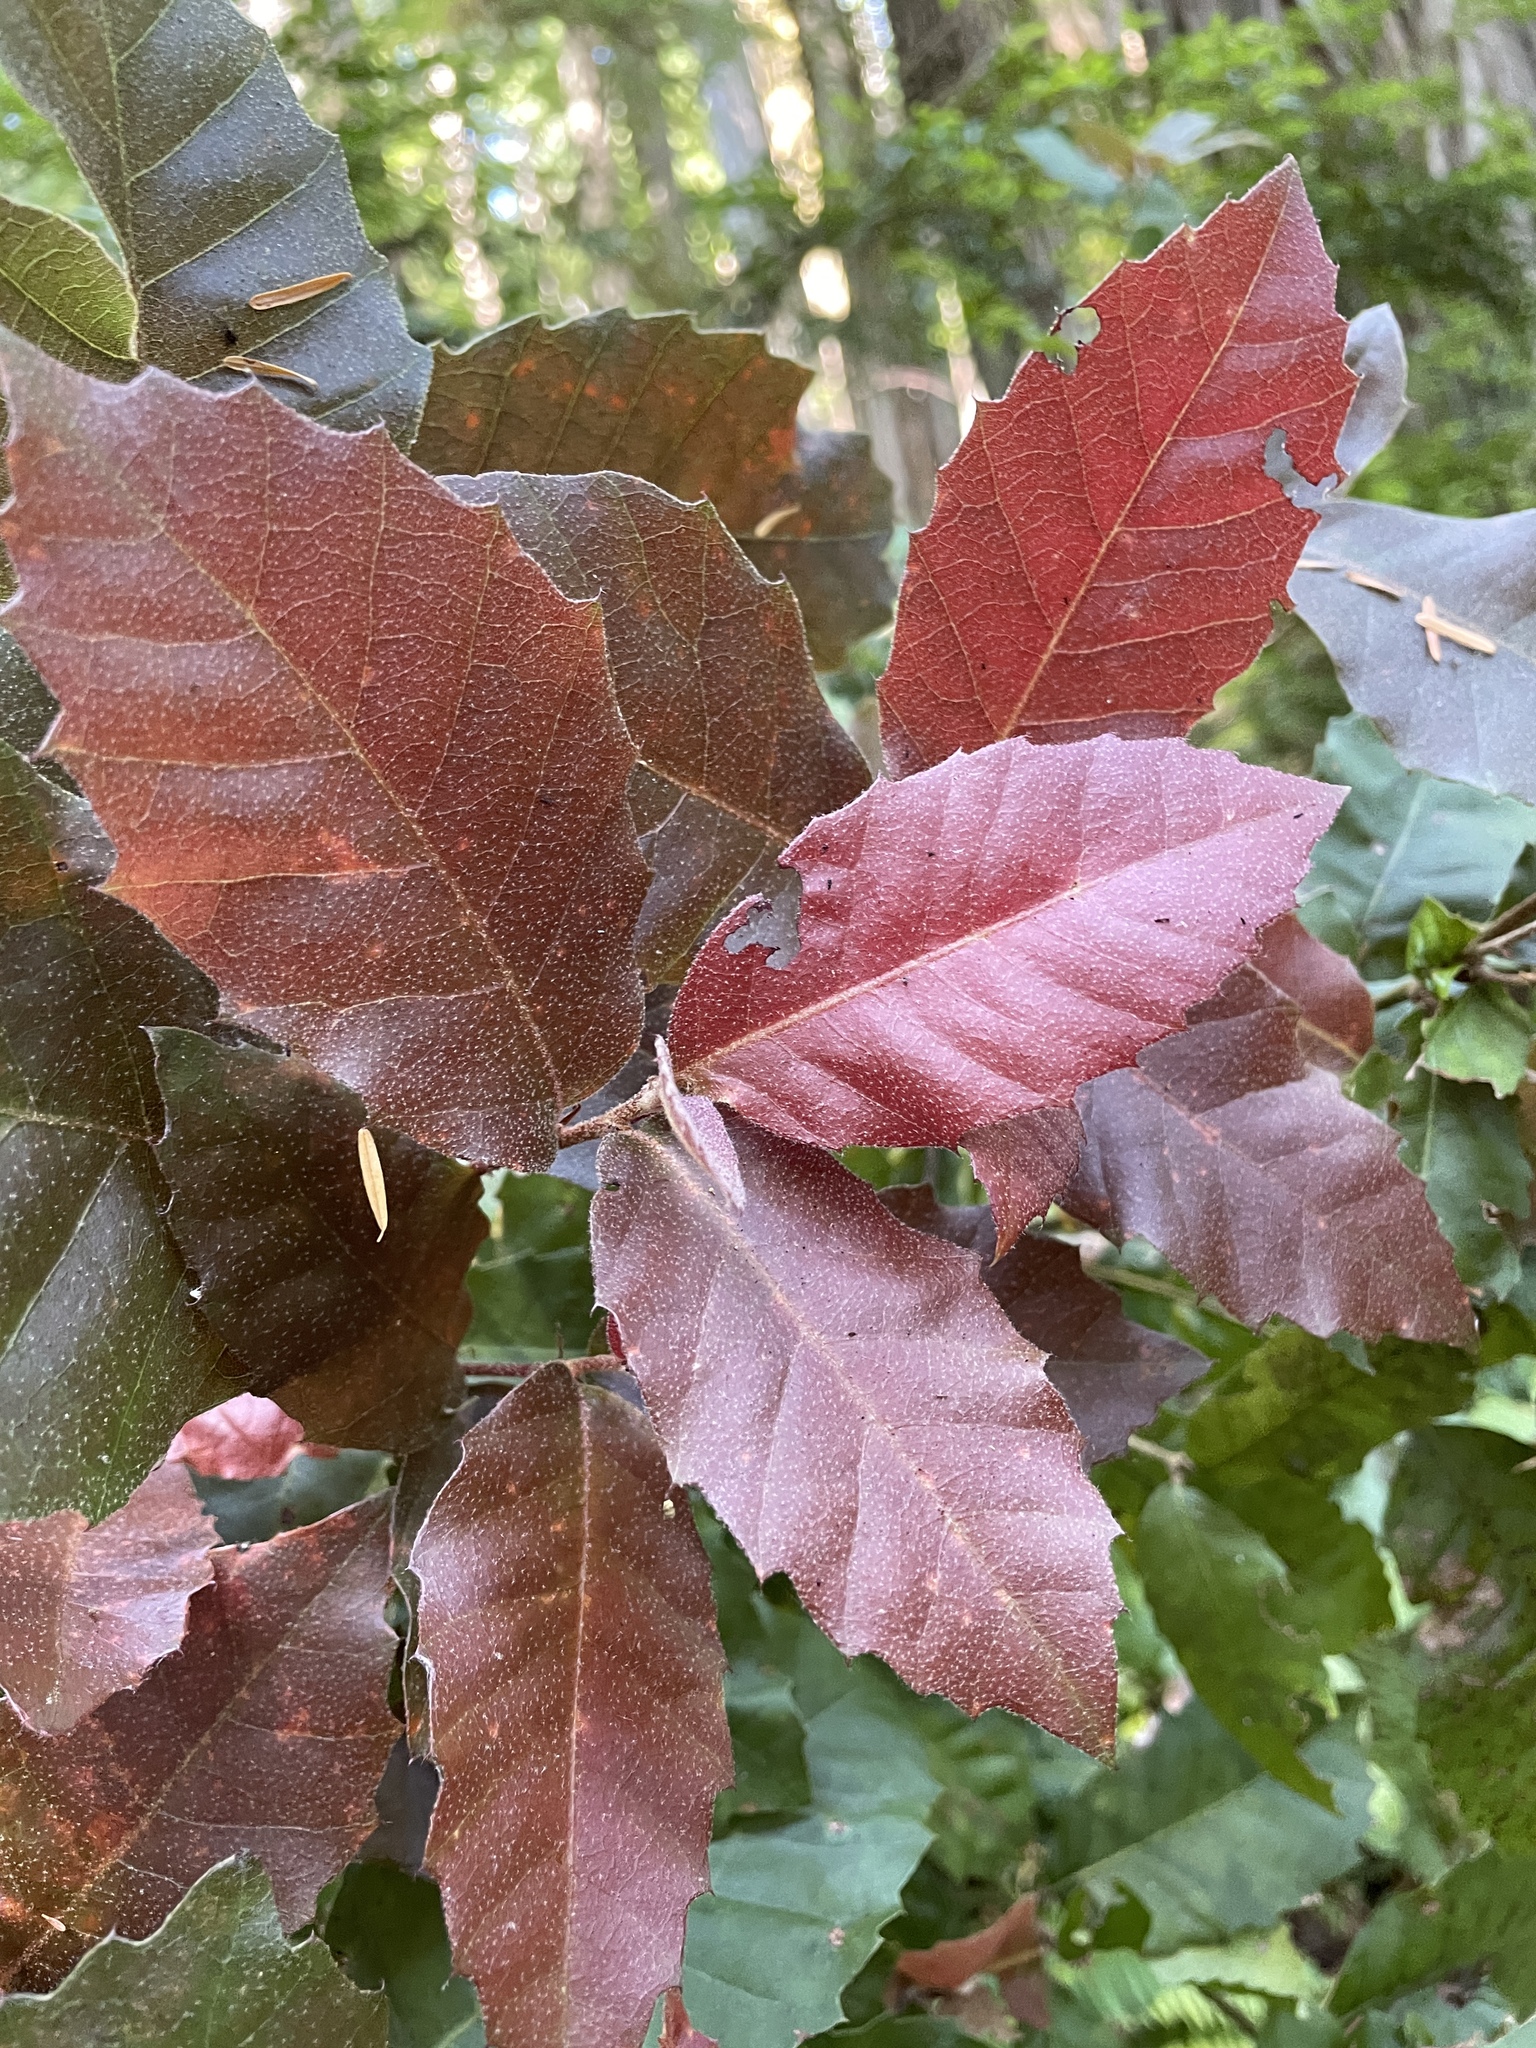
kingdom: Plantae
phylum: Tracheophyta
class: Magnoliopsida
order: Fagales
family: Fagaceae
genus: Notholithocarpus
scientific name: Notholithocarpus densiflorus
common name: Tan bark oak
